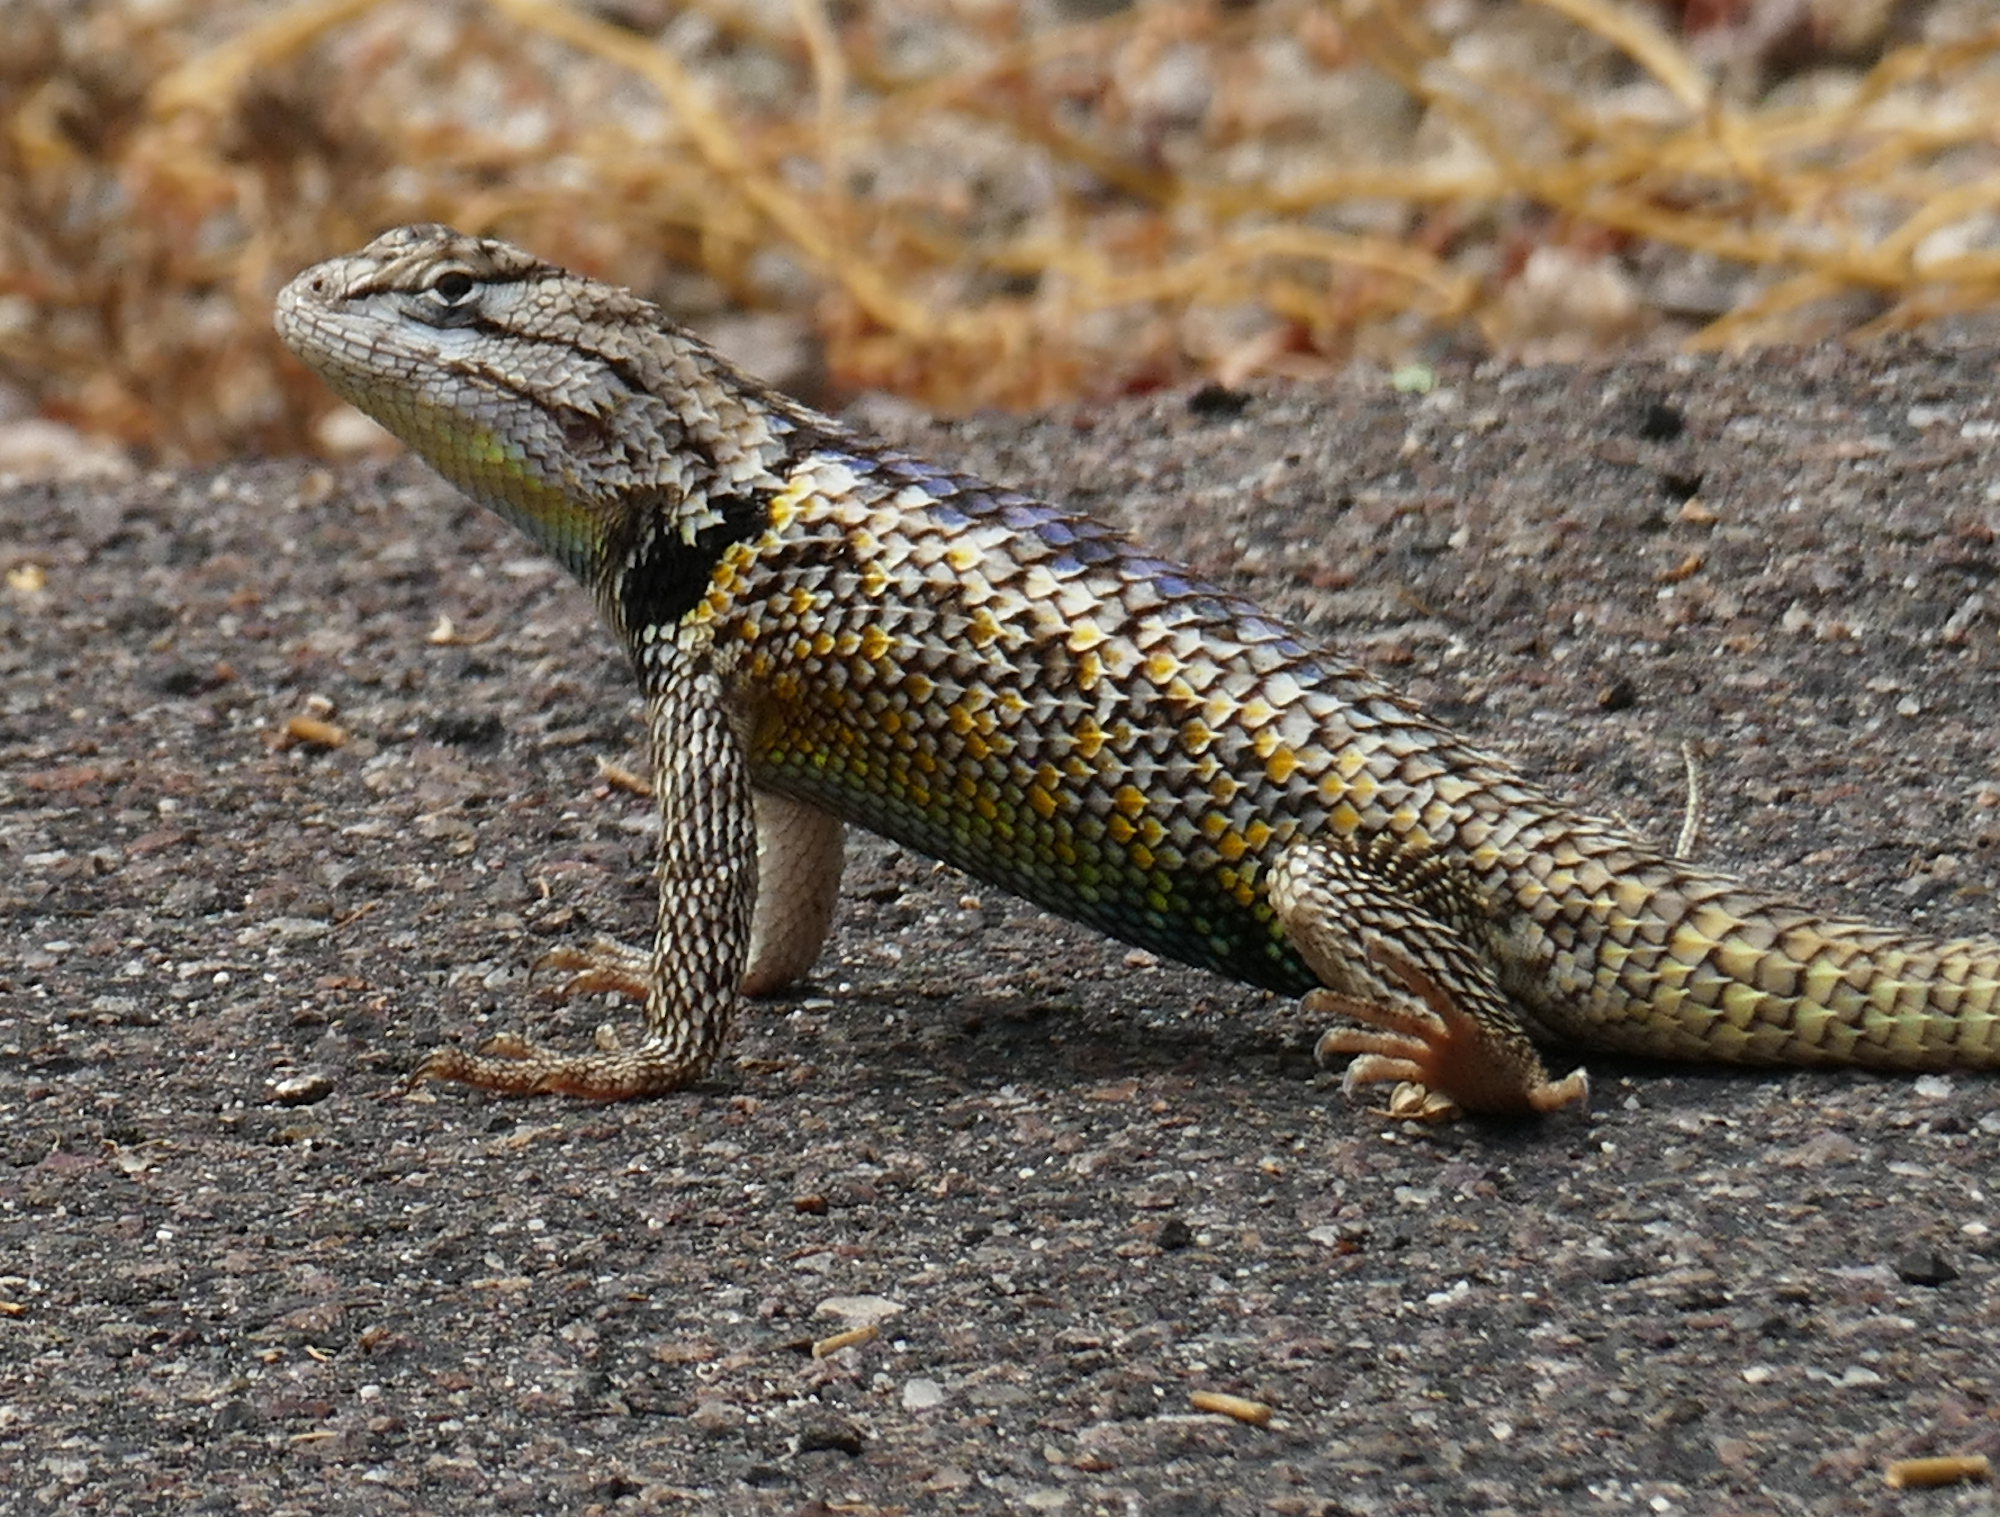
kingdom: Animalia
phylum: Chordata
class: Squamata
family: Phrynosomatidae
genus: Sceloporus
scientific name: Sceloporus magister
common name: Desert spiny lizard
